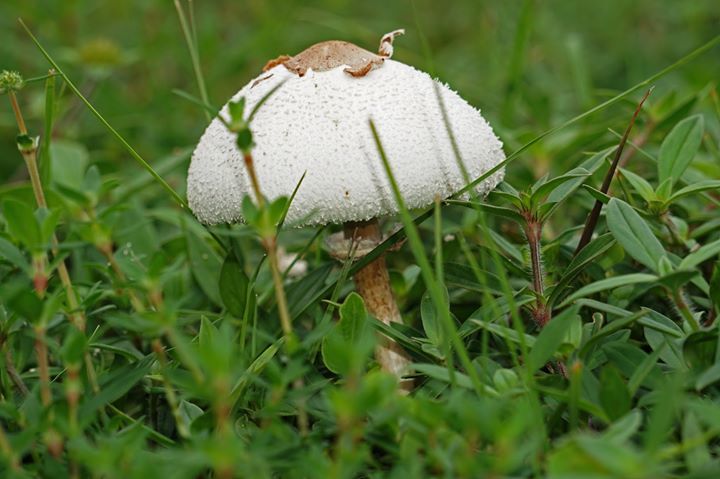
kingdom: Fungi
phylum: Basidiomycota
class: Agaricomycetes
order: Agaricales
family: Agaricaceae
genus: Chlorophyllum
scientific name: Chlorophyllum molybdites
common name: False parasol
